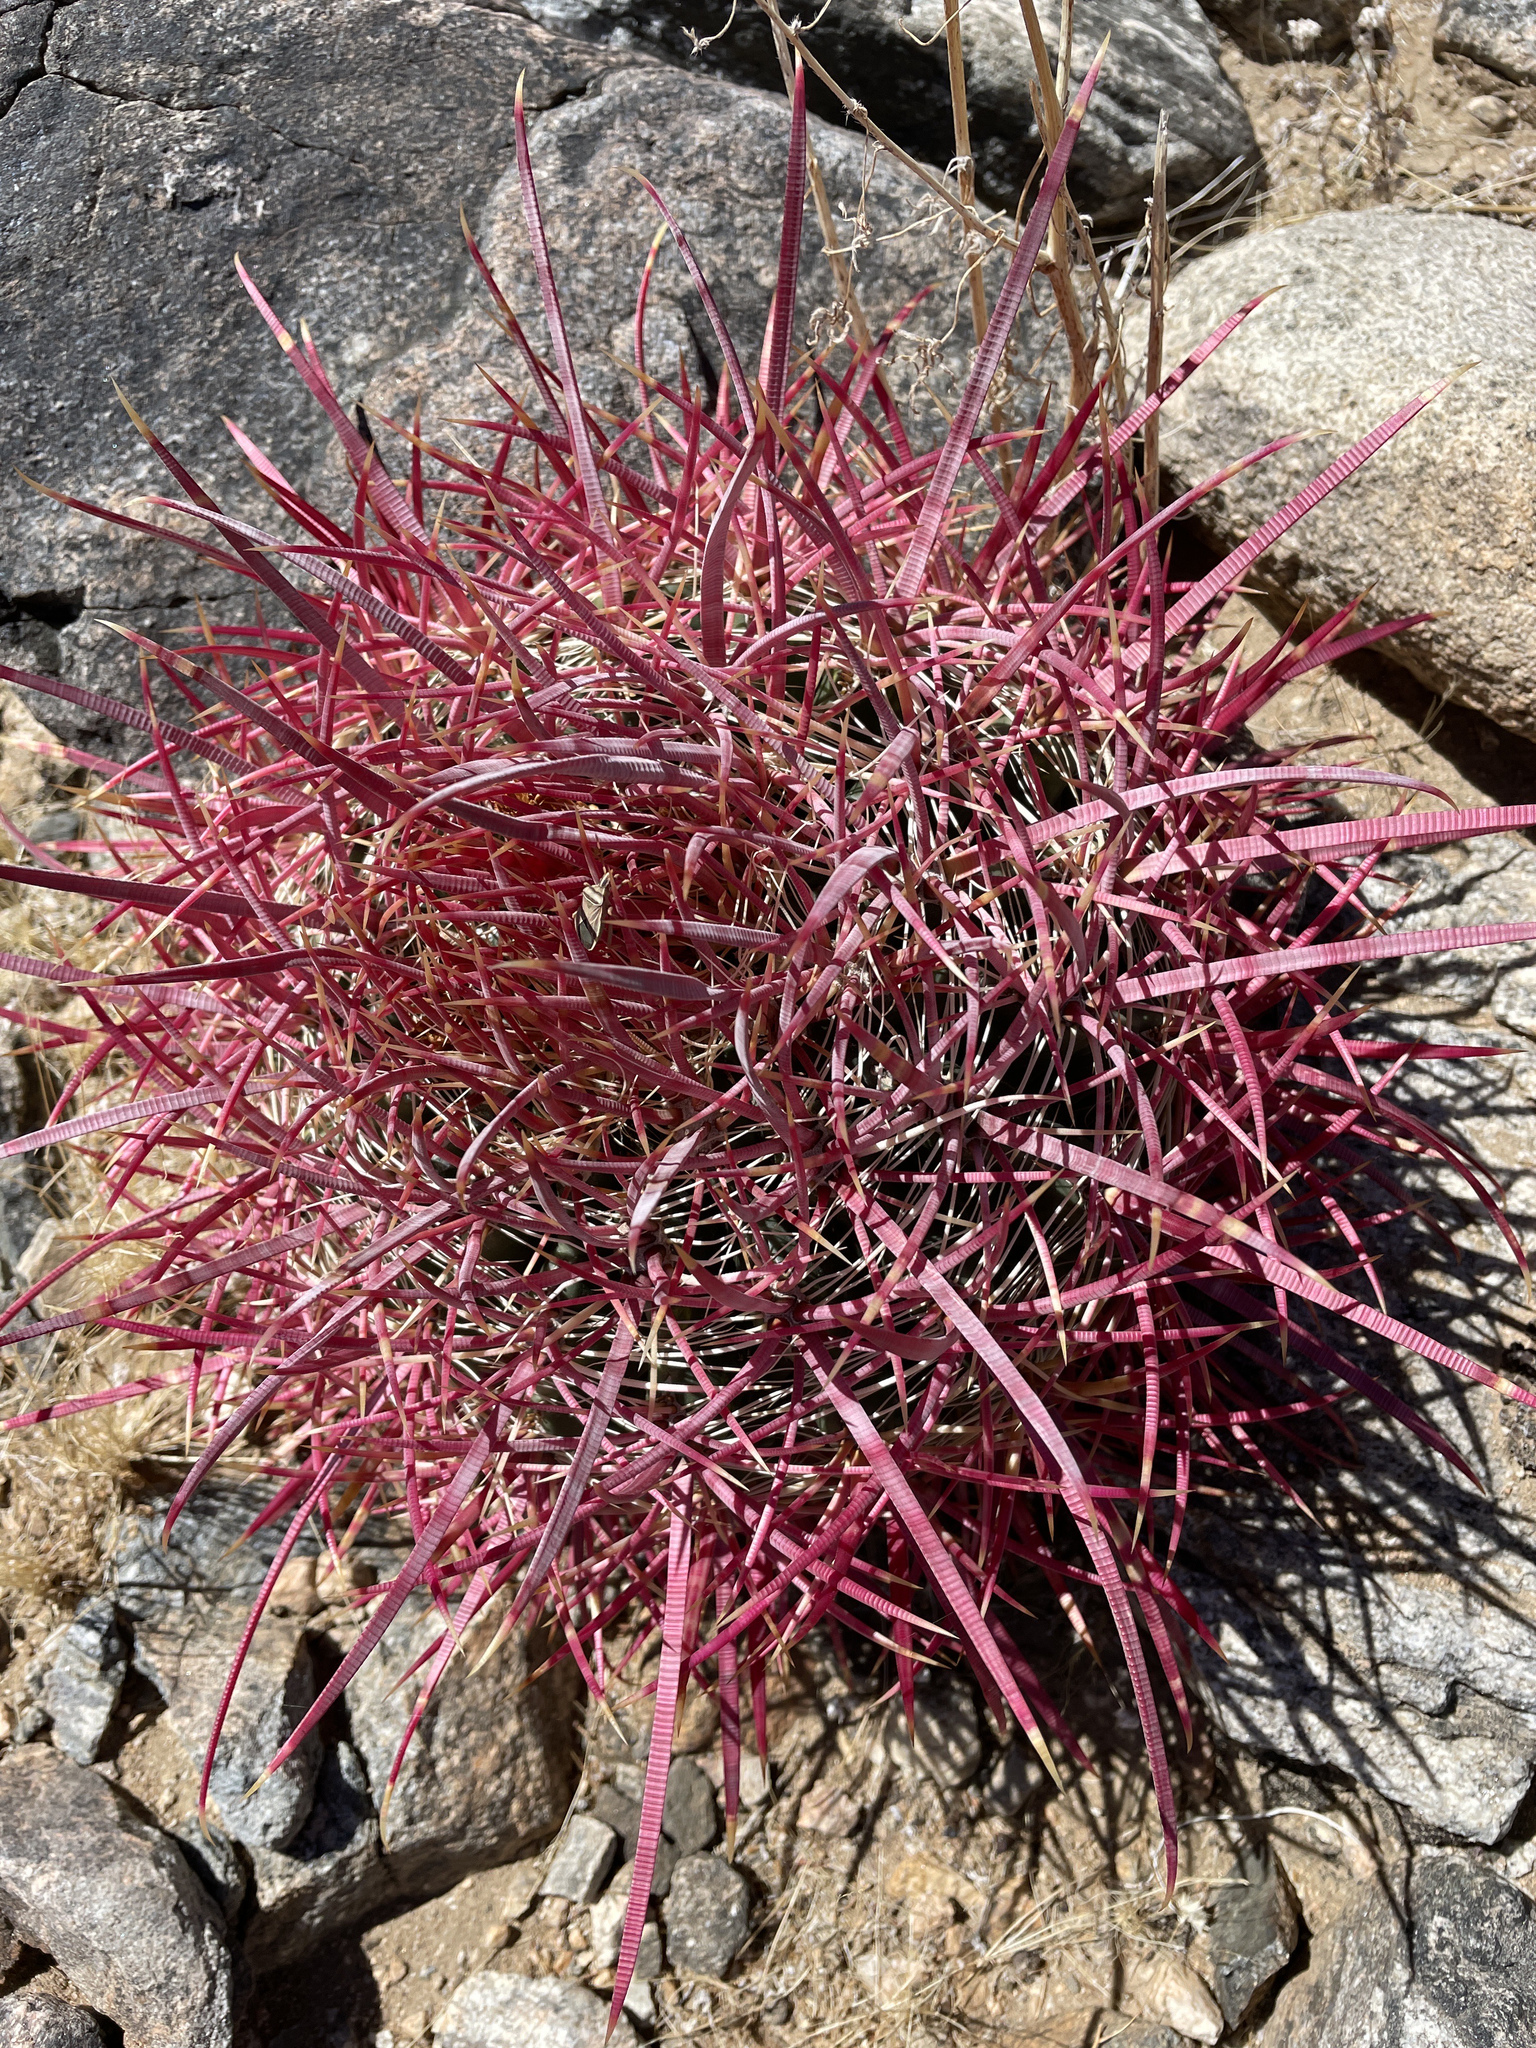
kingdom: Plantae
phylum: Tracheophyta
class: Magnoliopsida
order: Caryophyllales
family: Cactaceae
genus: Ferocactus
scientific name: Ferocactus cylindraceus
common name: California barrel cactus
